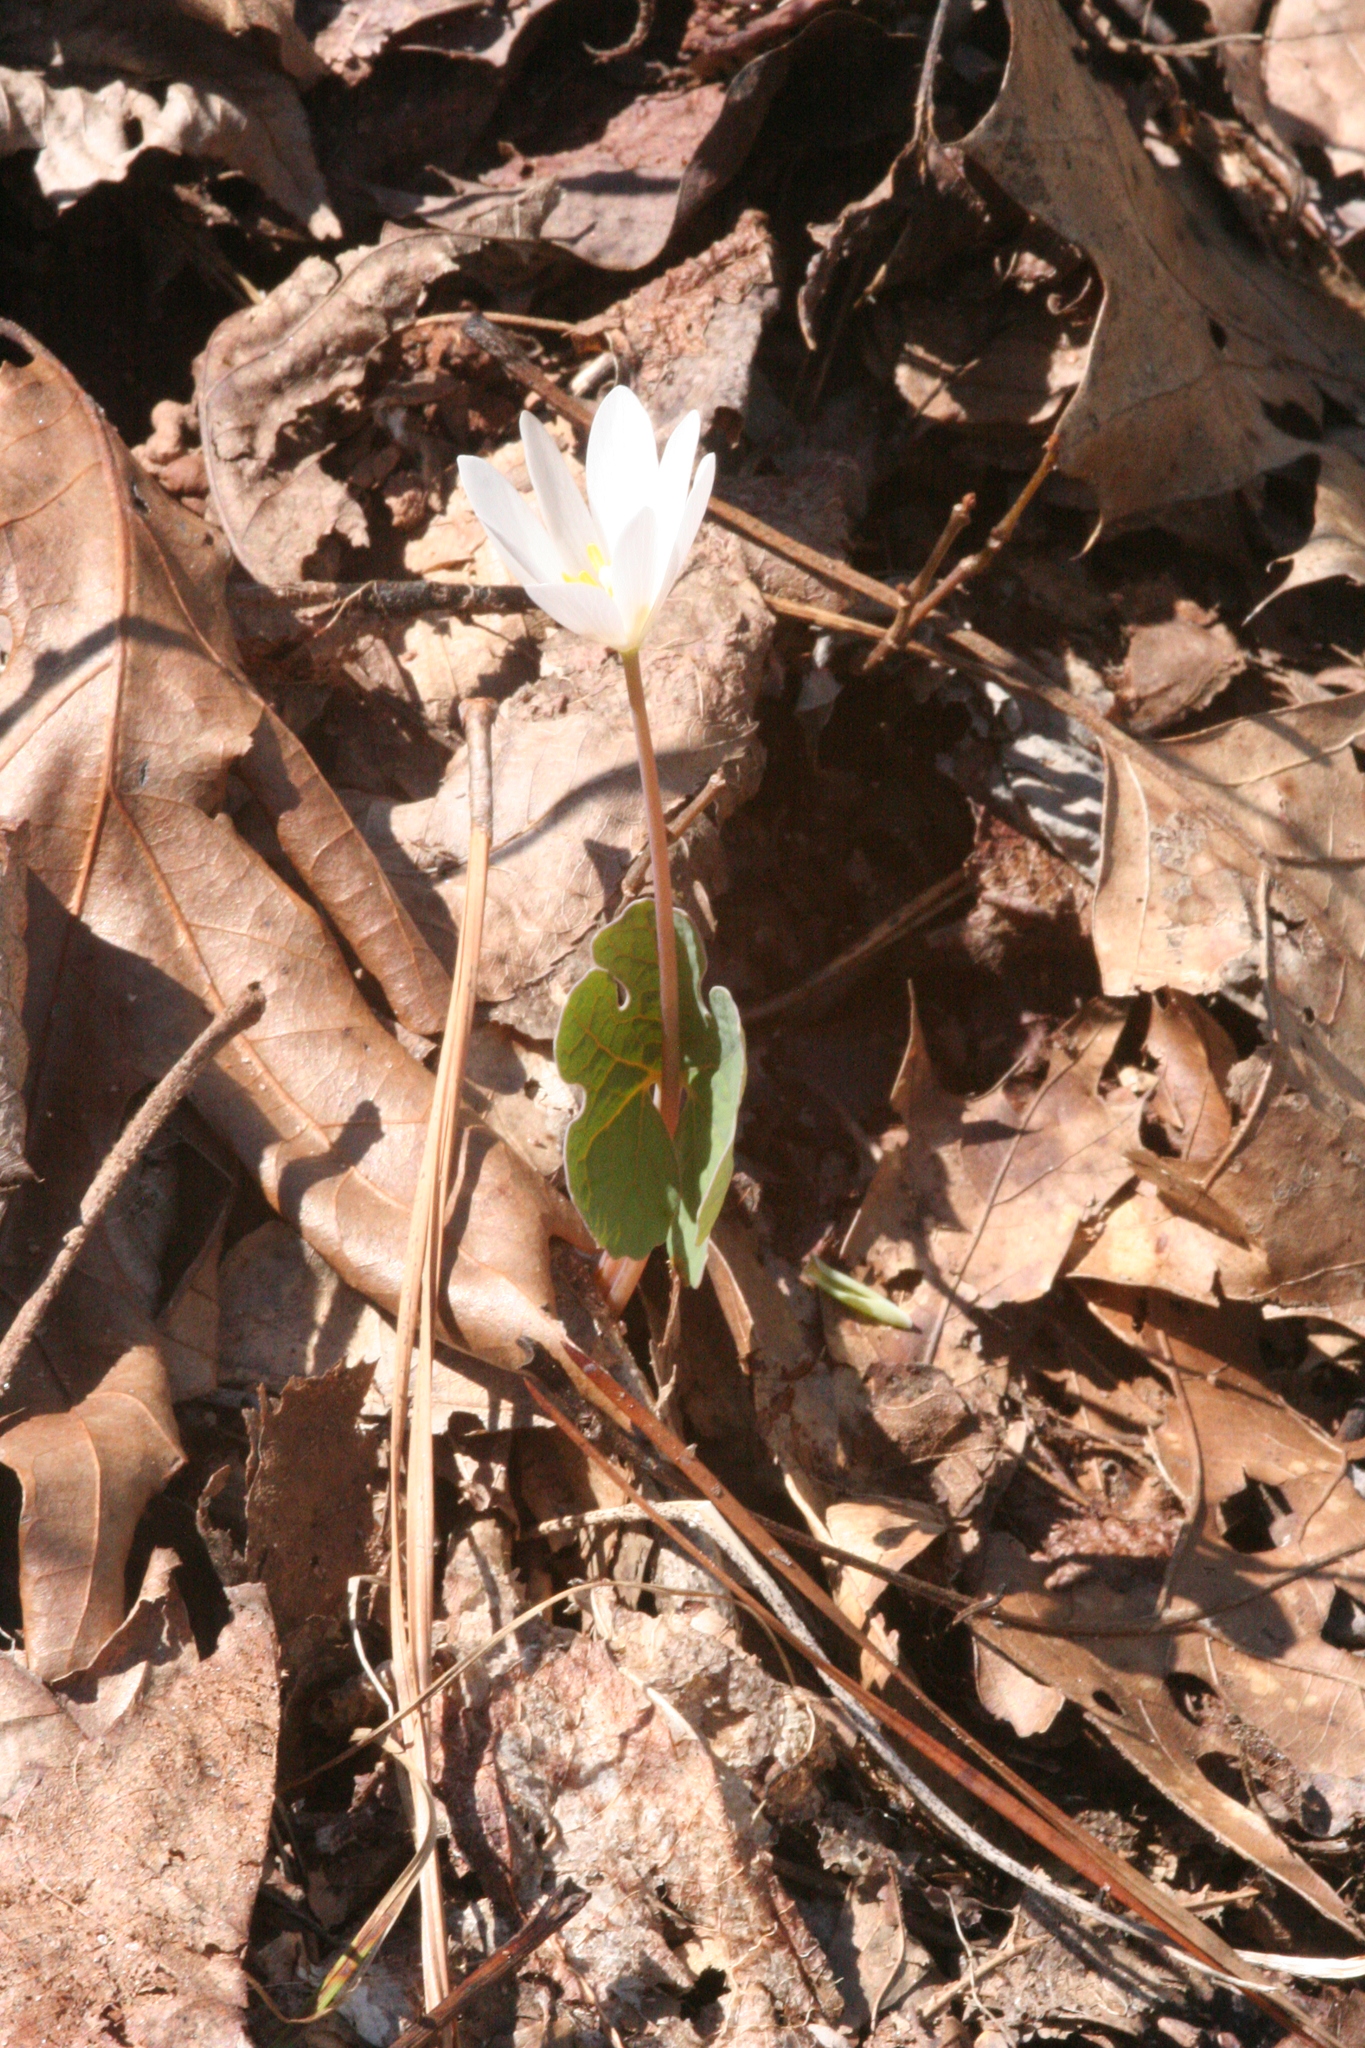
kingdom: Plantae
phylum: Tracheophyta
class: Magnoliopsida
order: Ranunculales
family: Papaveraceae
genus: Sanguinaria
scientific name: Sanguinaria canadensis
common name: Bloodroot
